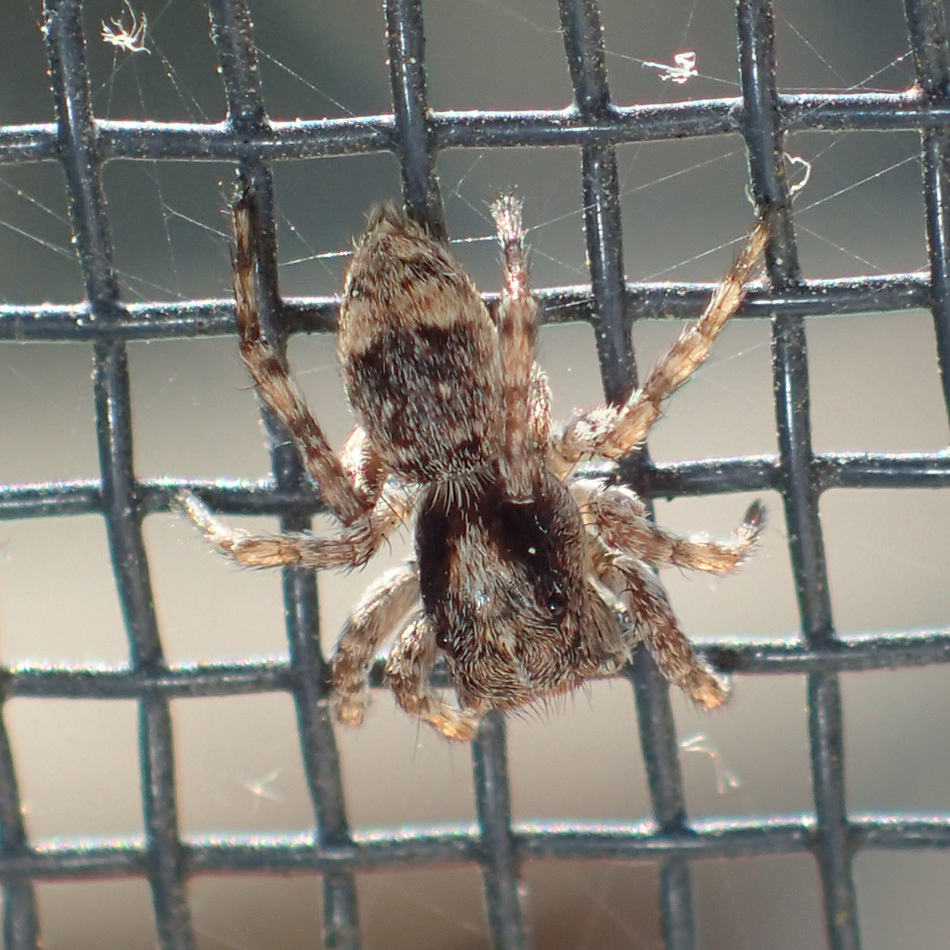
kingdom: Animalia
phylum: Arthropoda
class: Arachnida
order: Araneae
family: Salticidae
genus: Attulus
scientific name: Attulus fasciger
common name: Asiatic wall jumping spider
